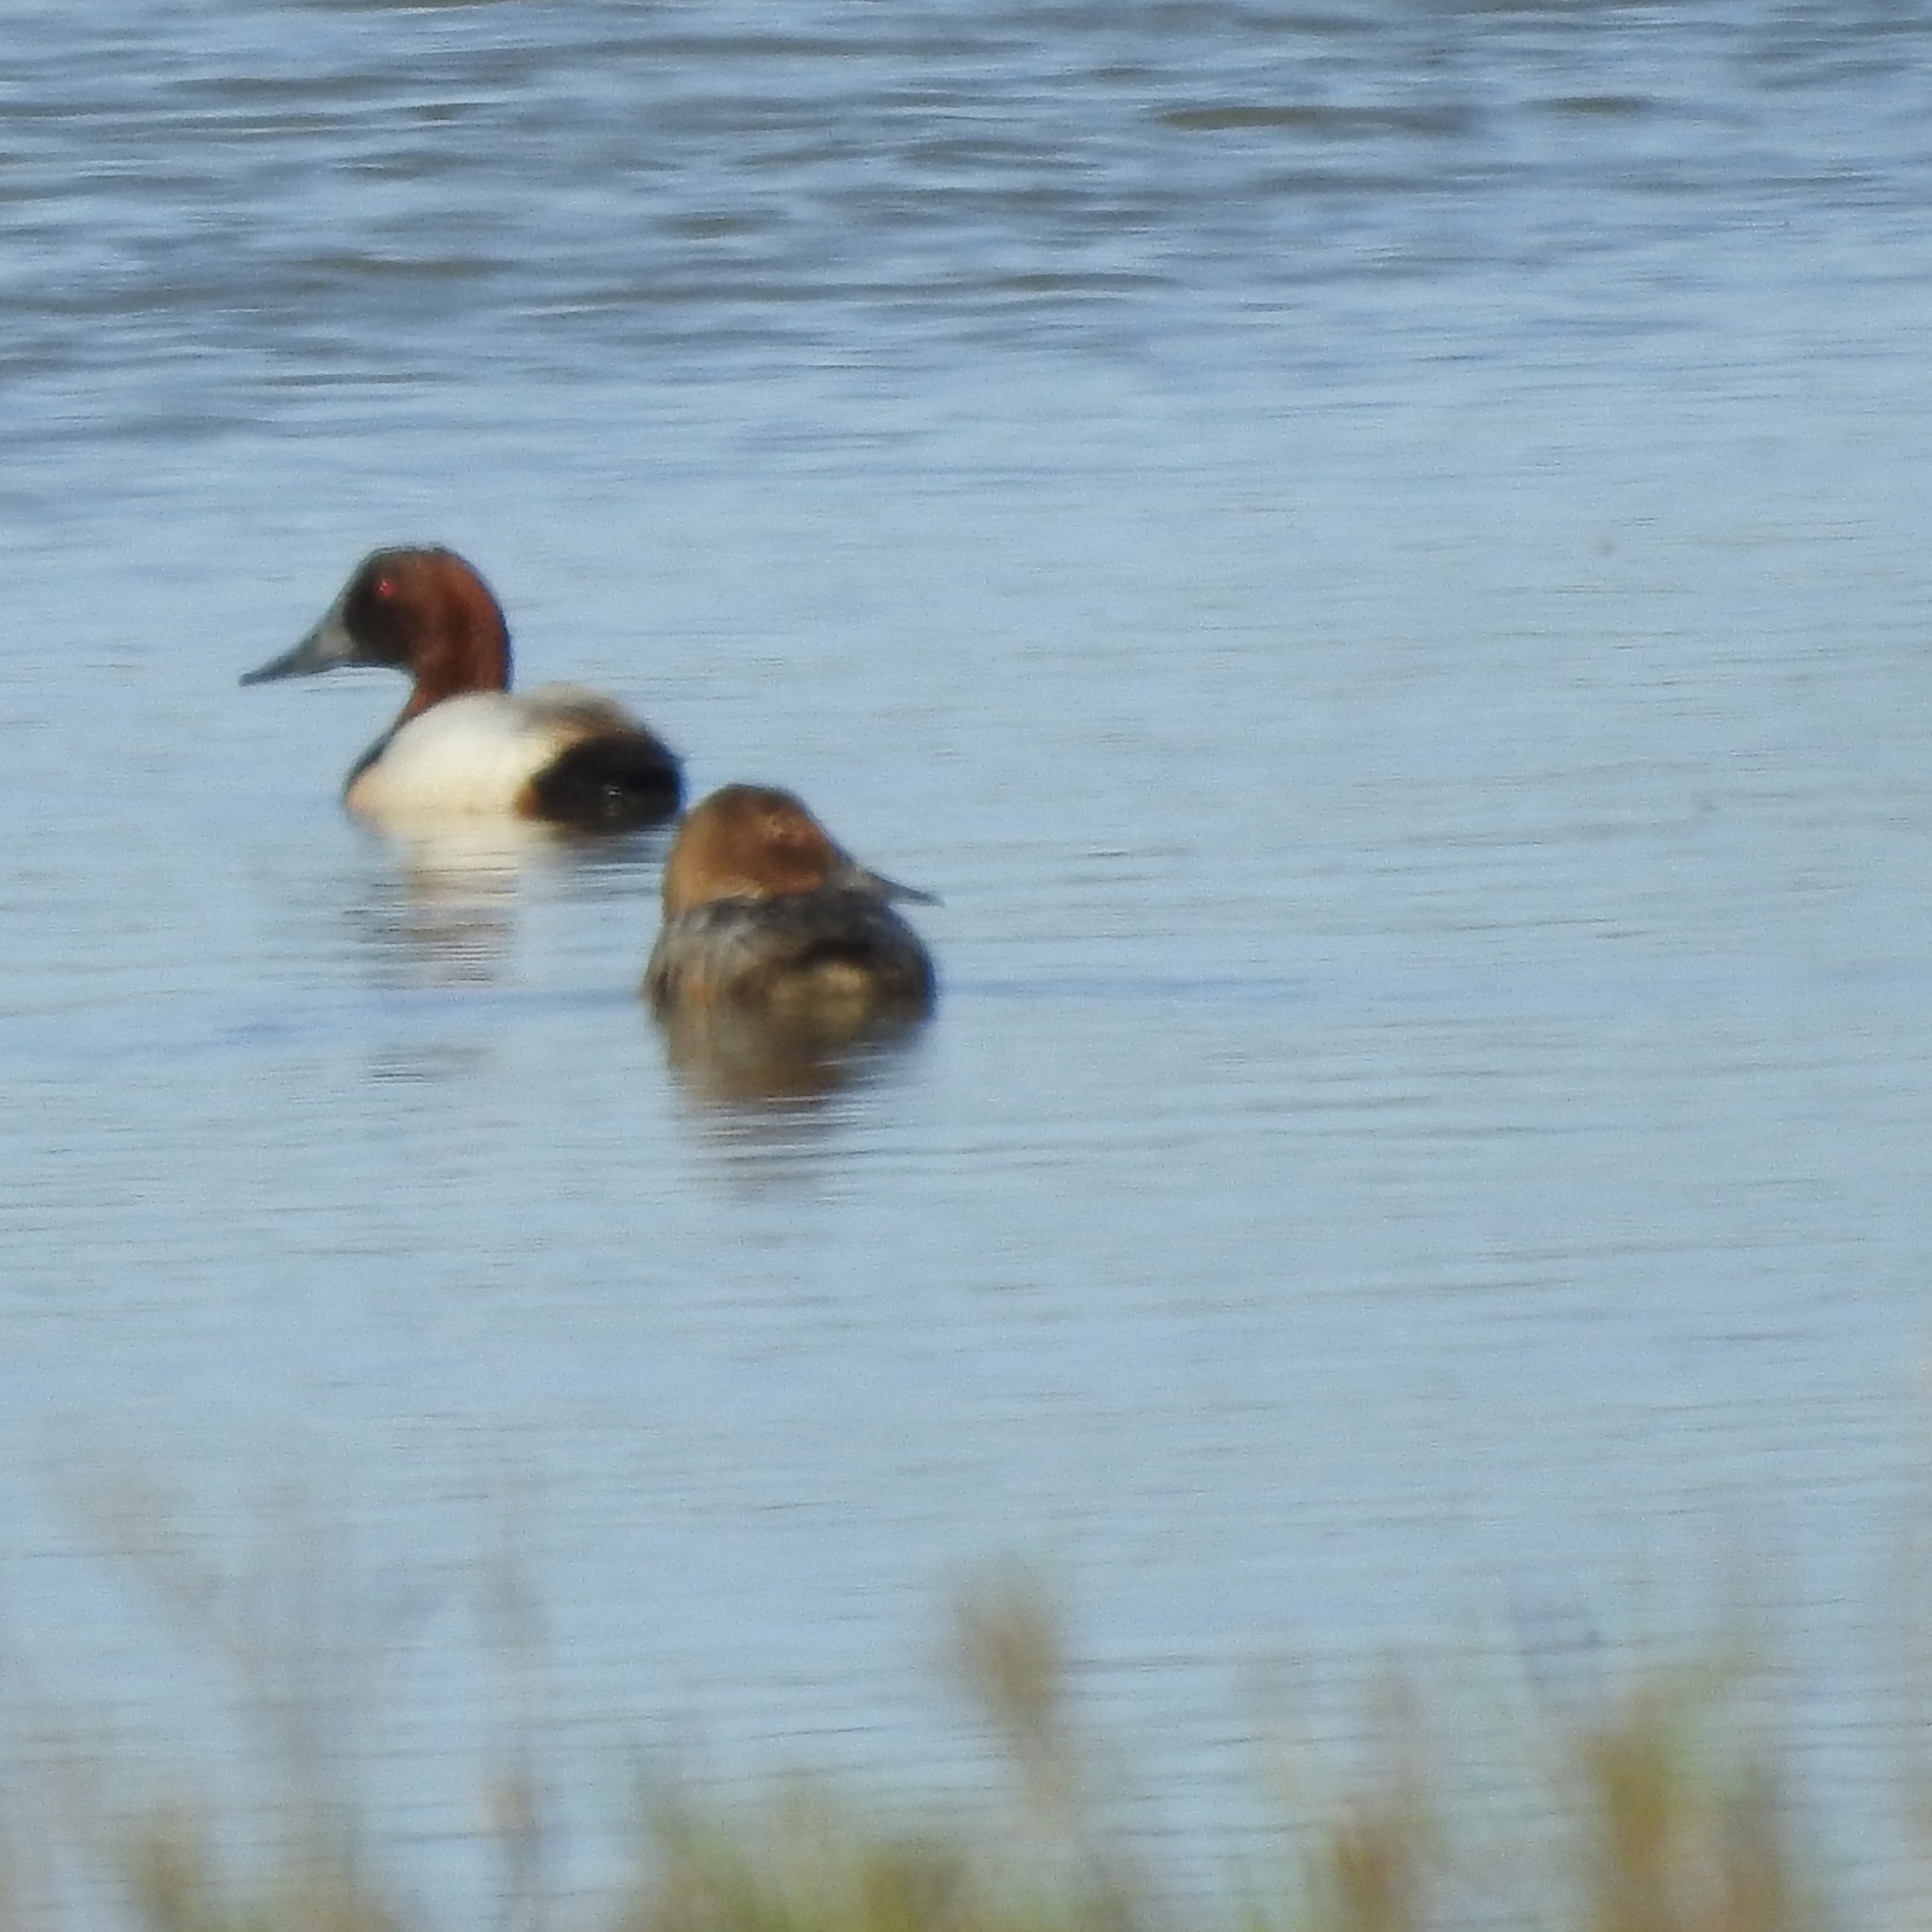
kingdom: Animalia
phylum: Chordata
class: Aves
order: Anseriformes
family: Anatidae
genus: Aythya
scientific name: Aythya valisineria
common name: Canvasback
